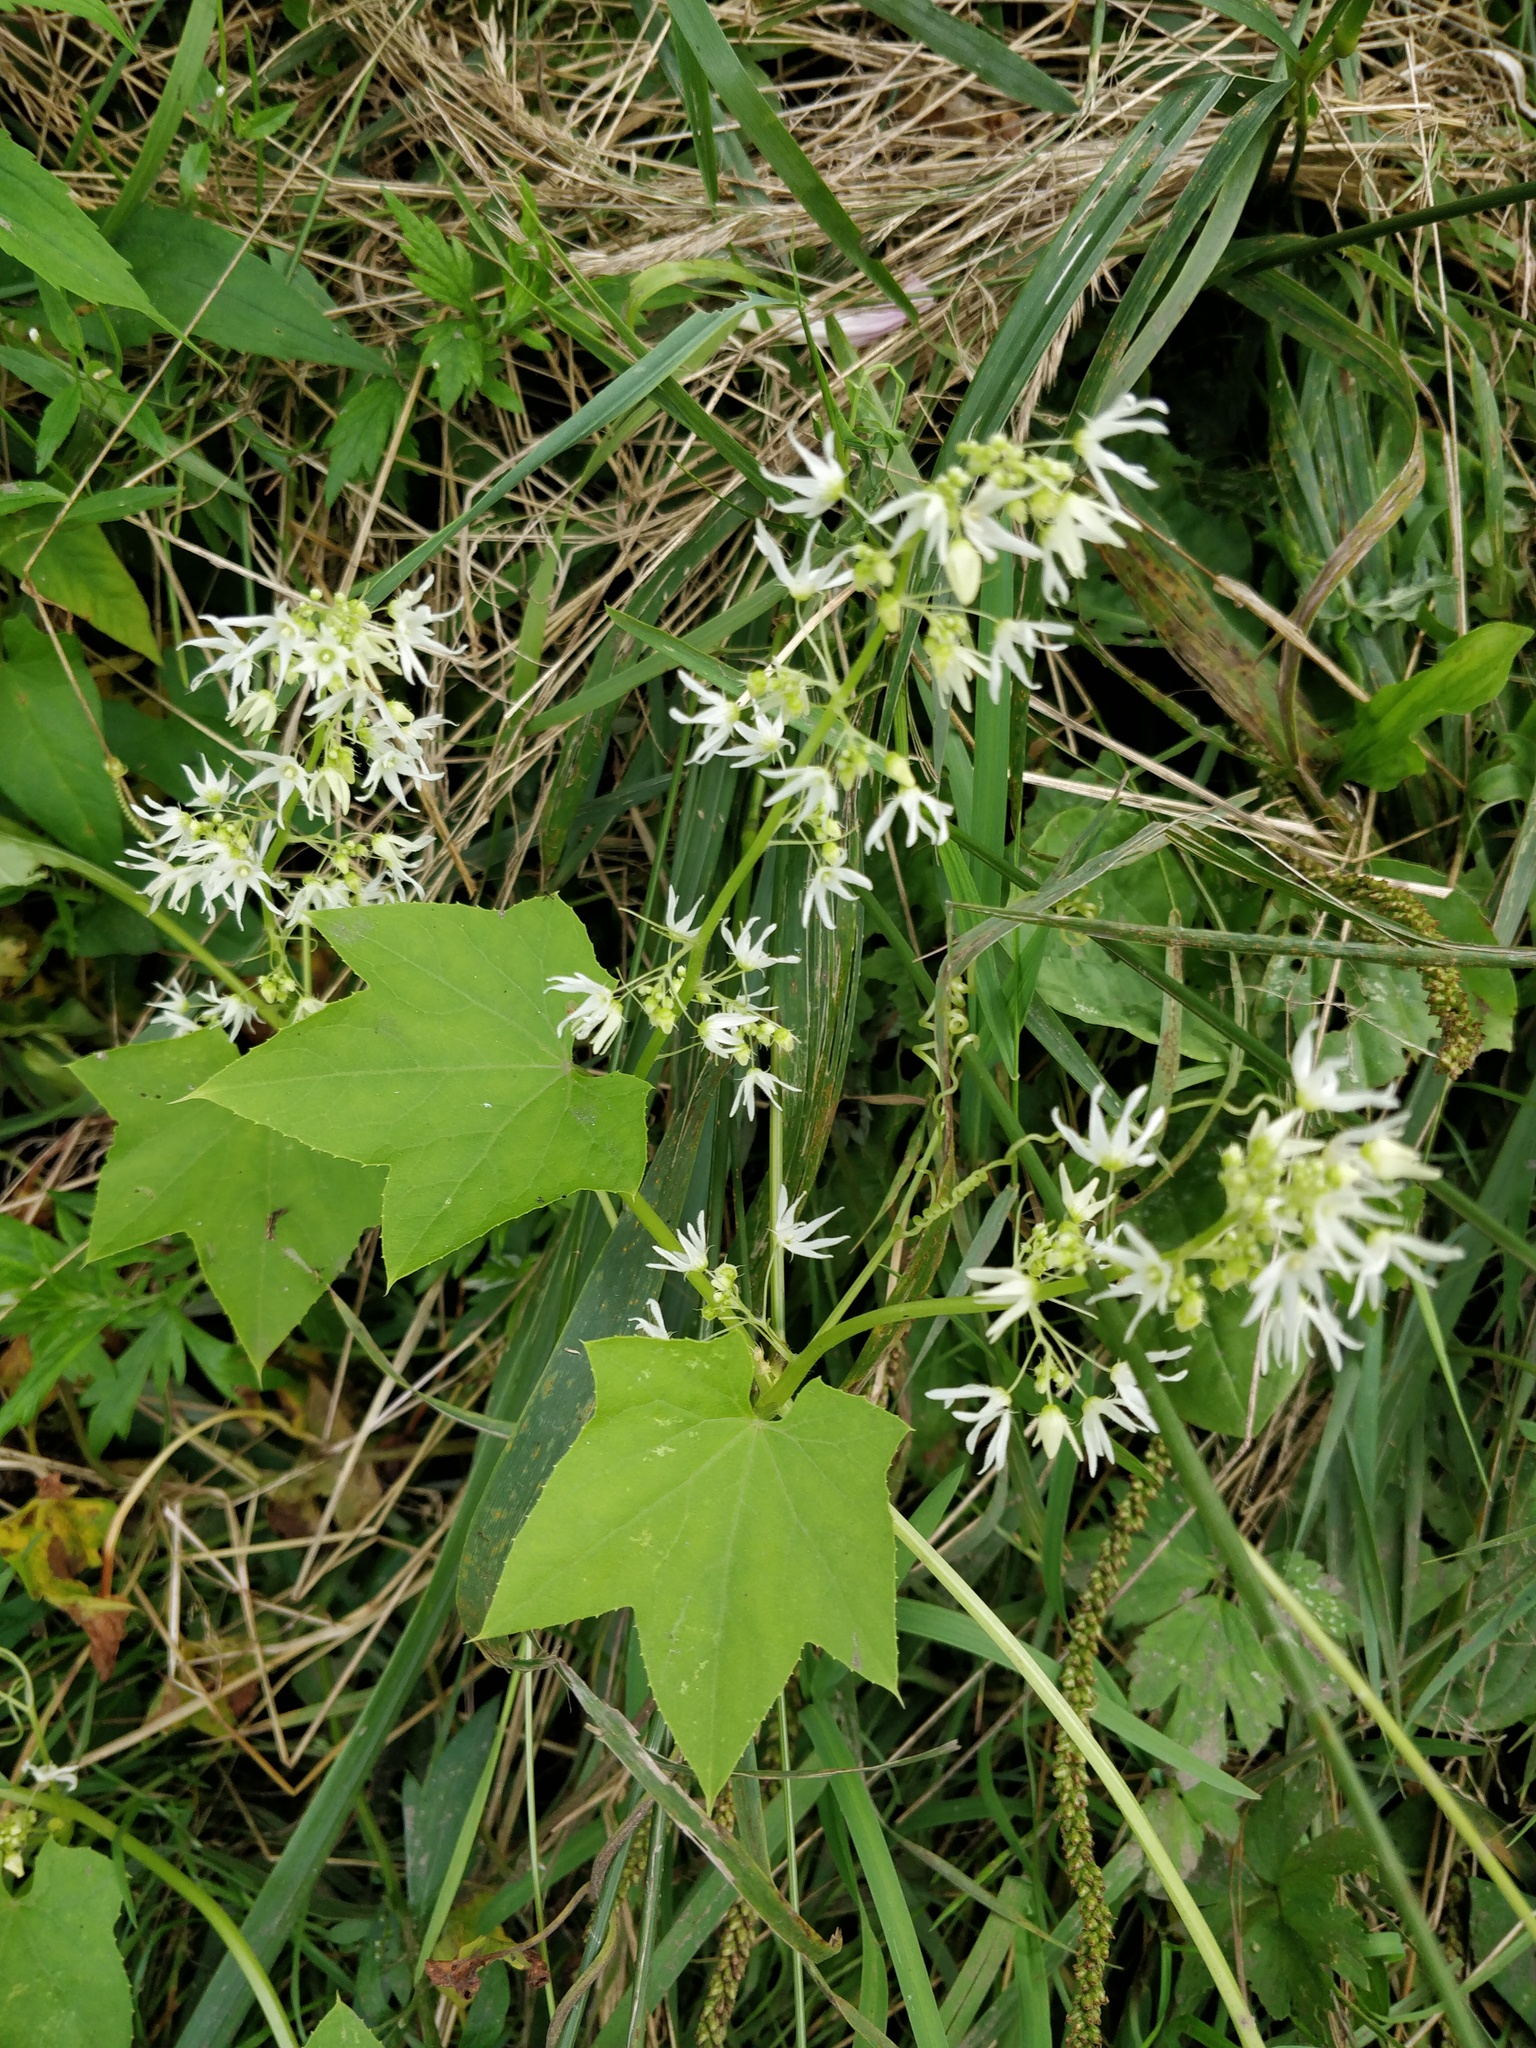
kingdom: Plantae
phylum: Tracheophyta
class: Magnoliopsida
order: Cucurbitales
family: Cucurbitaceae
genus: Echinocystis
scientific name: Echinocystis lobata
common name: Wild cucumber
